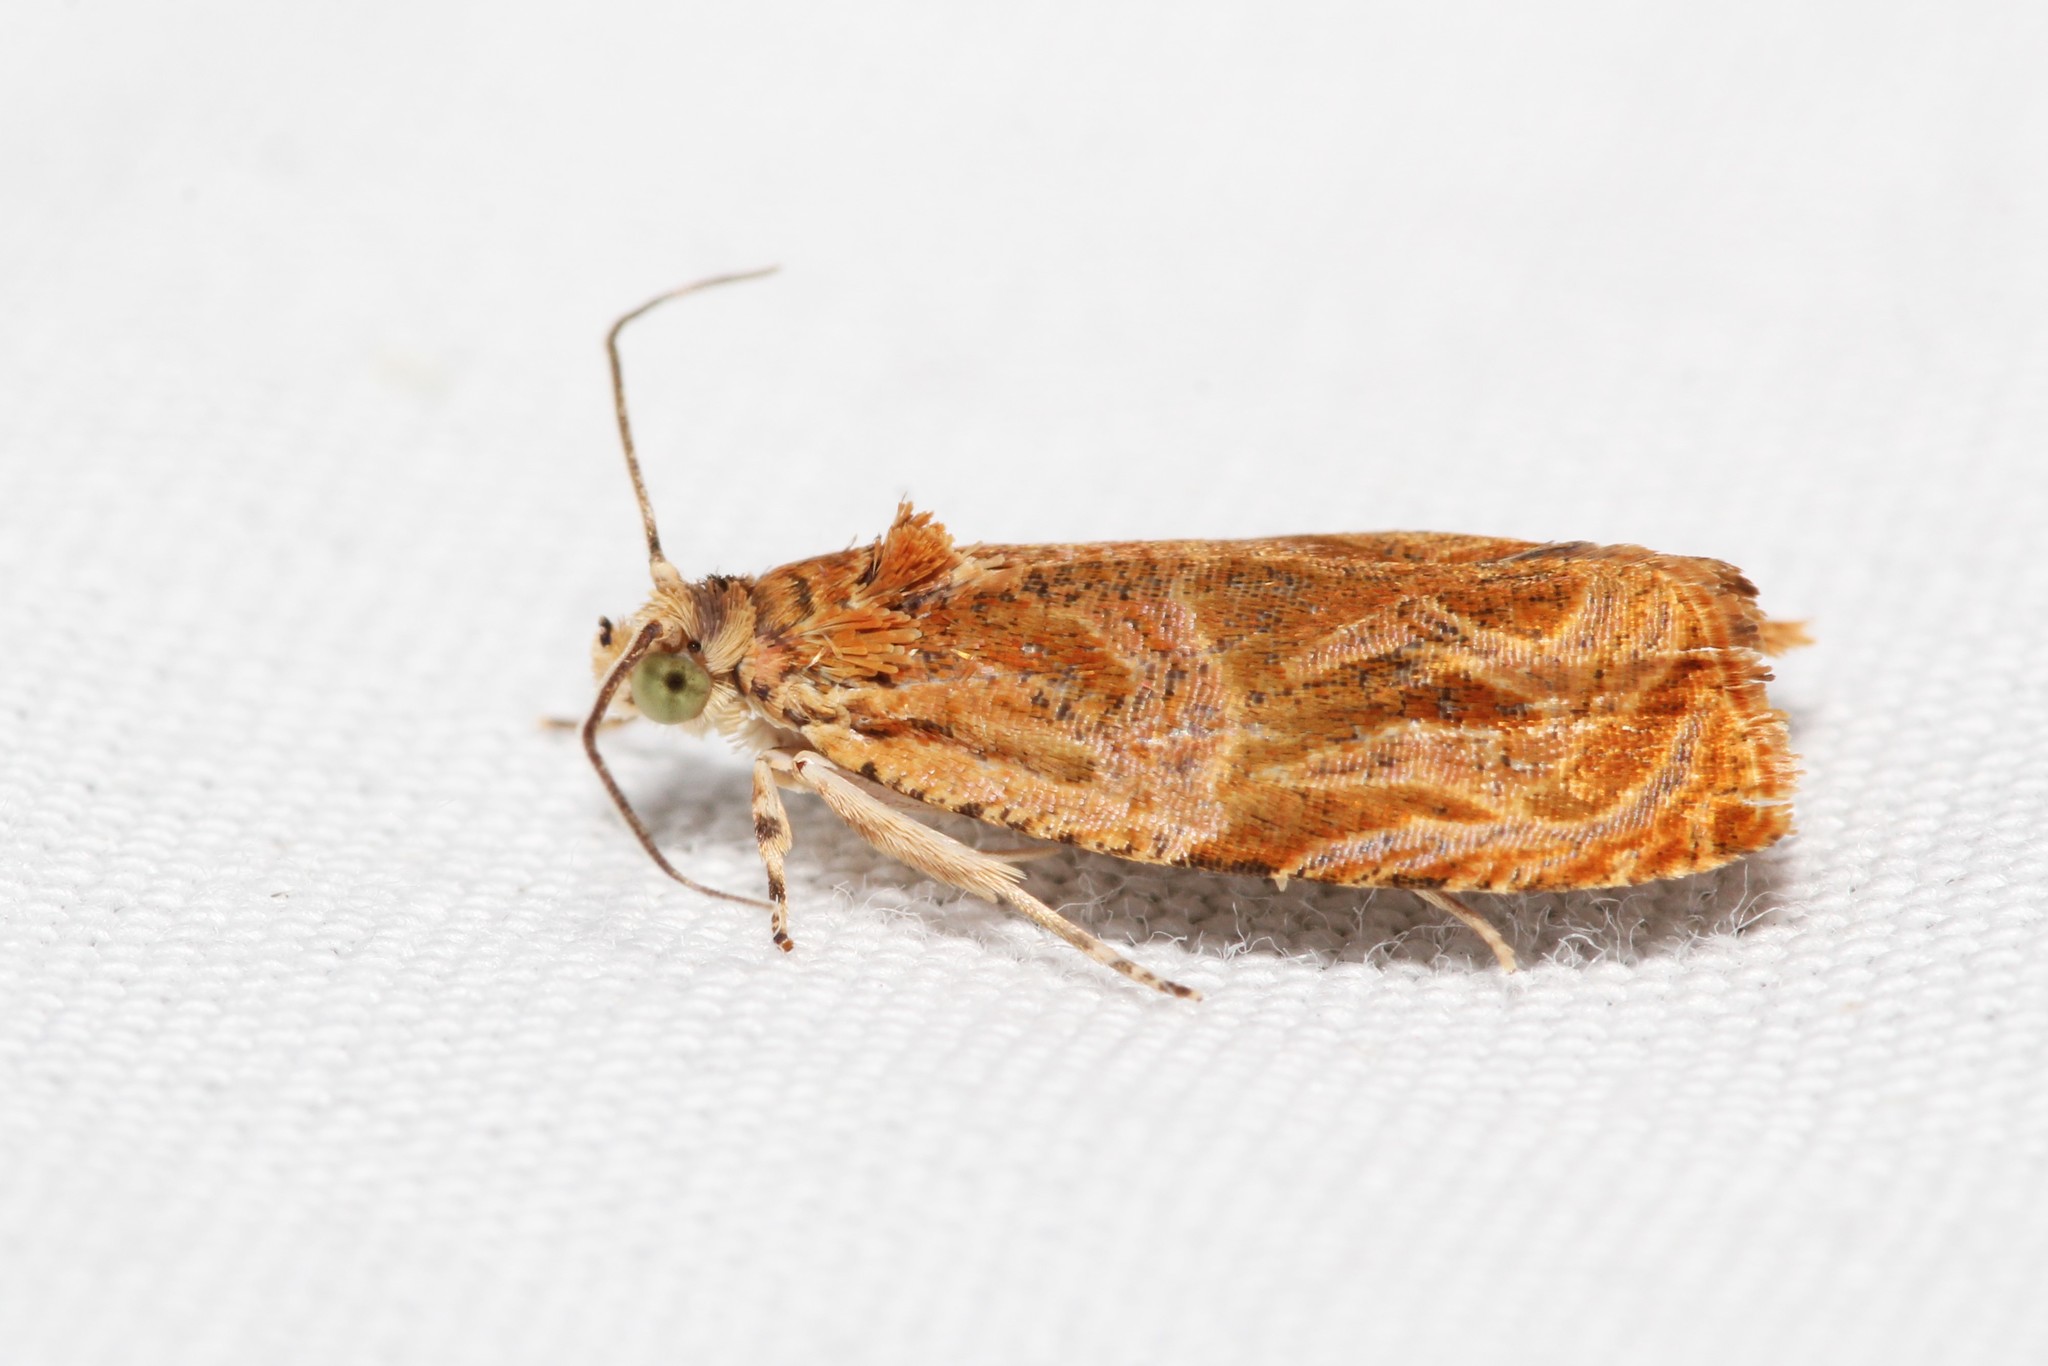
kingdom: Animalia
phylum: Arthropoda
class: Insecta
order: Lepidoptera
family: Tortricidae
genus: Olethreutes
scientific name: Olethreutes nitidana
